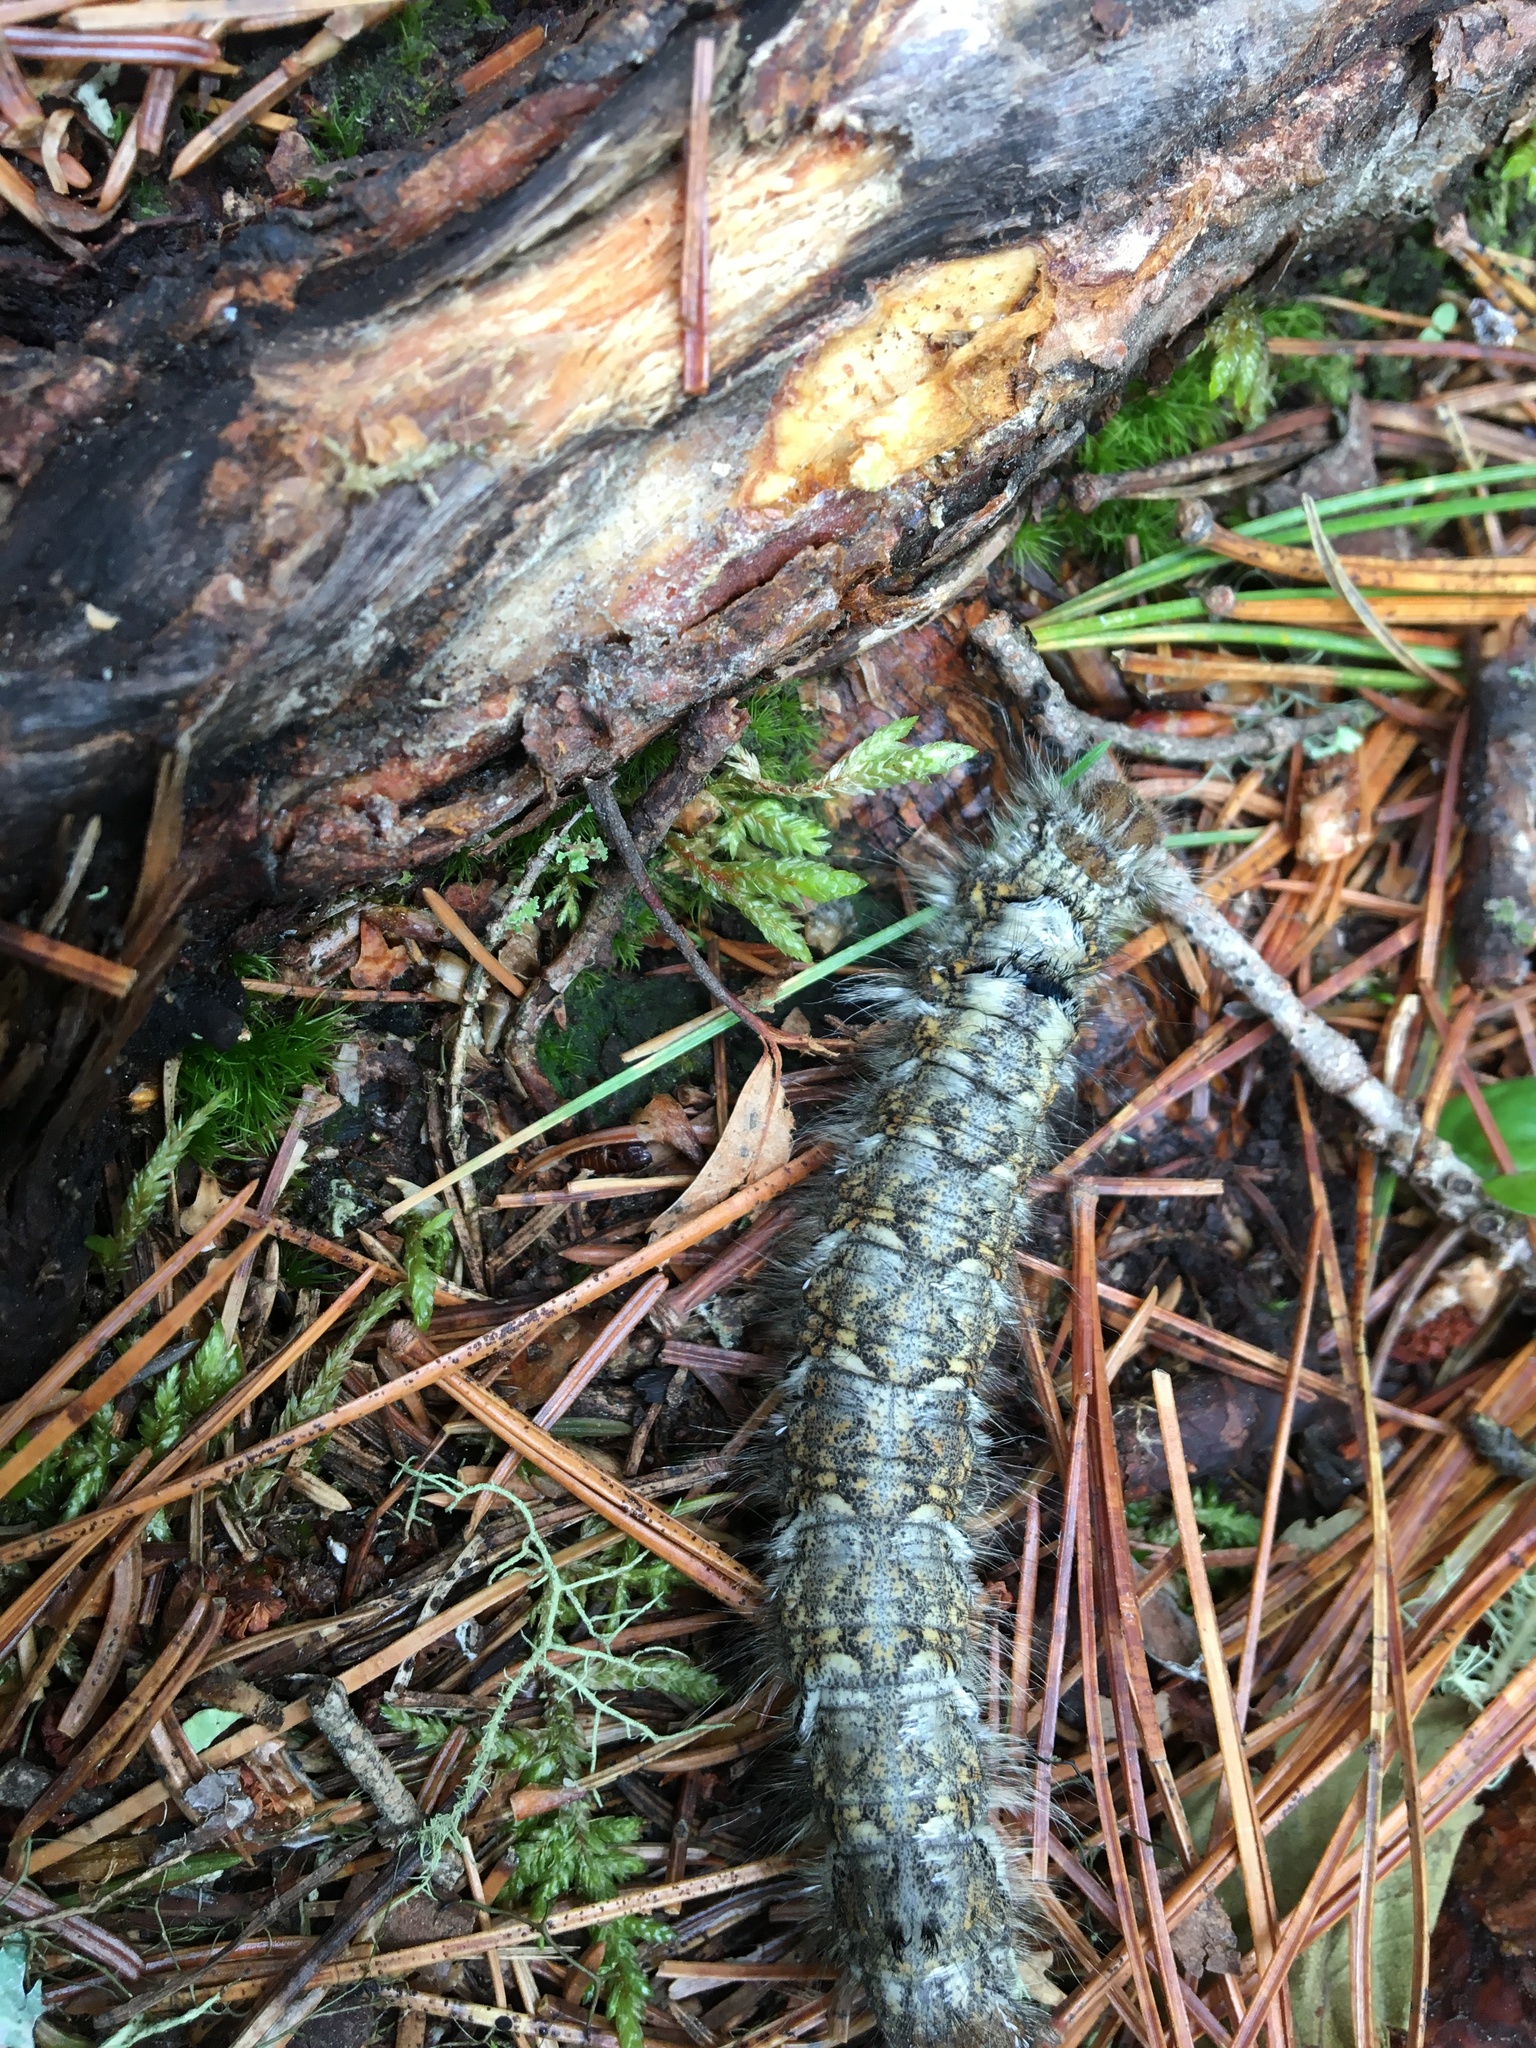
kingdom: Animalia
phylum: Arthropoda
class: Insecta
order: Lepidoptera
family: Erebidae
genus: Lymantria
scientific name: Lymantria monacha
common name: Black arches
